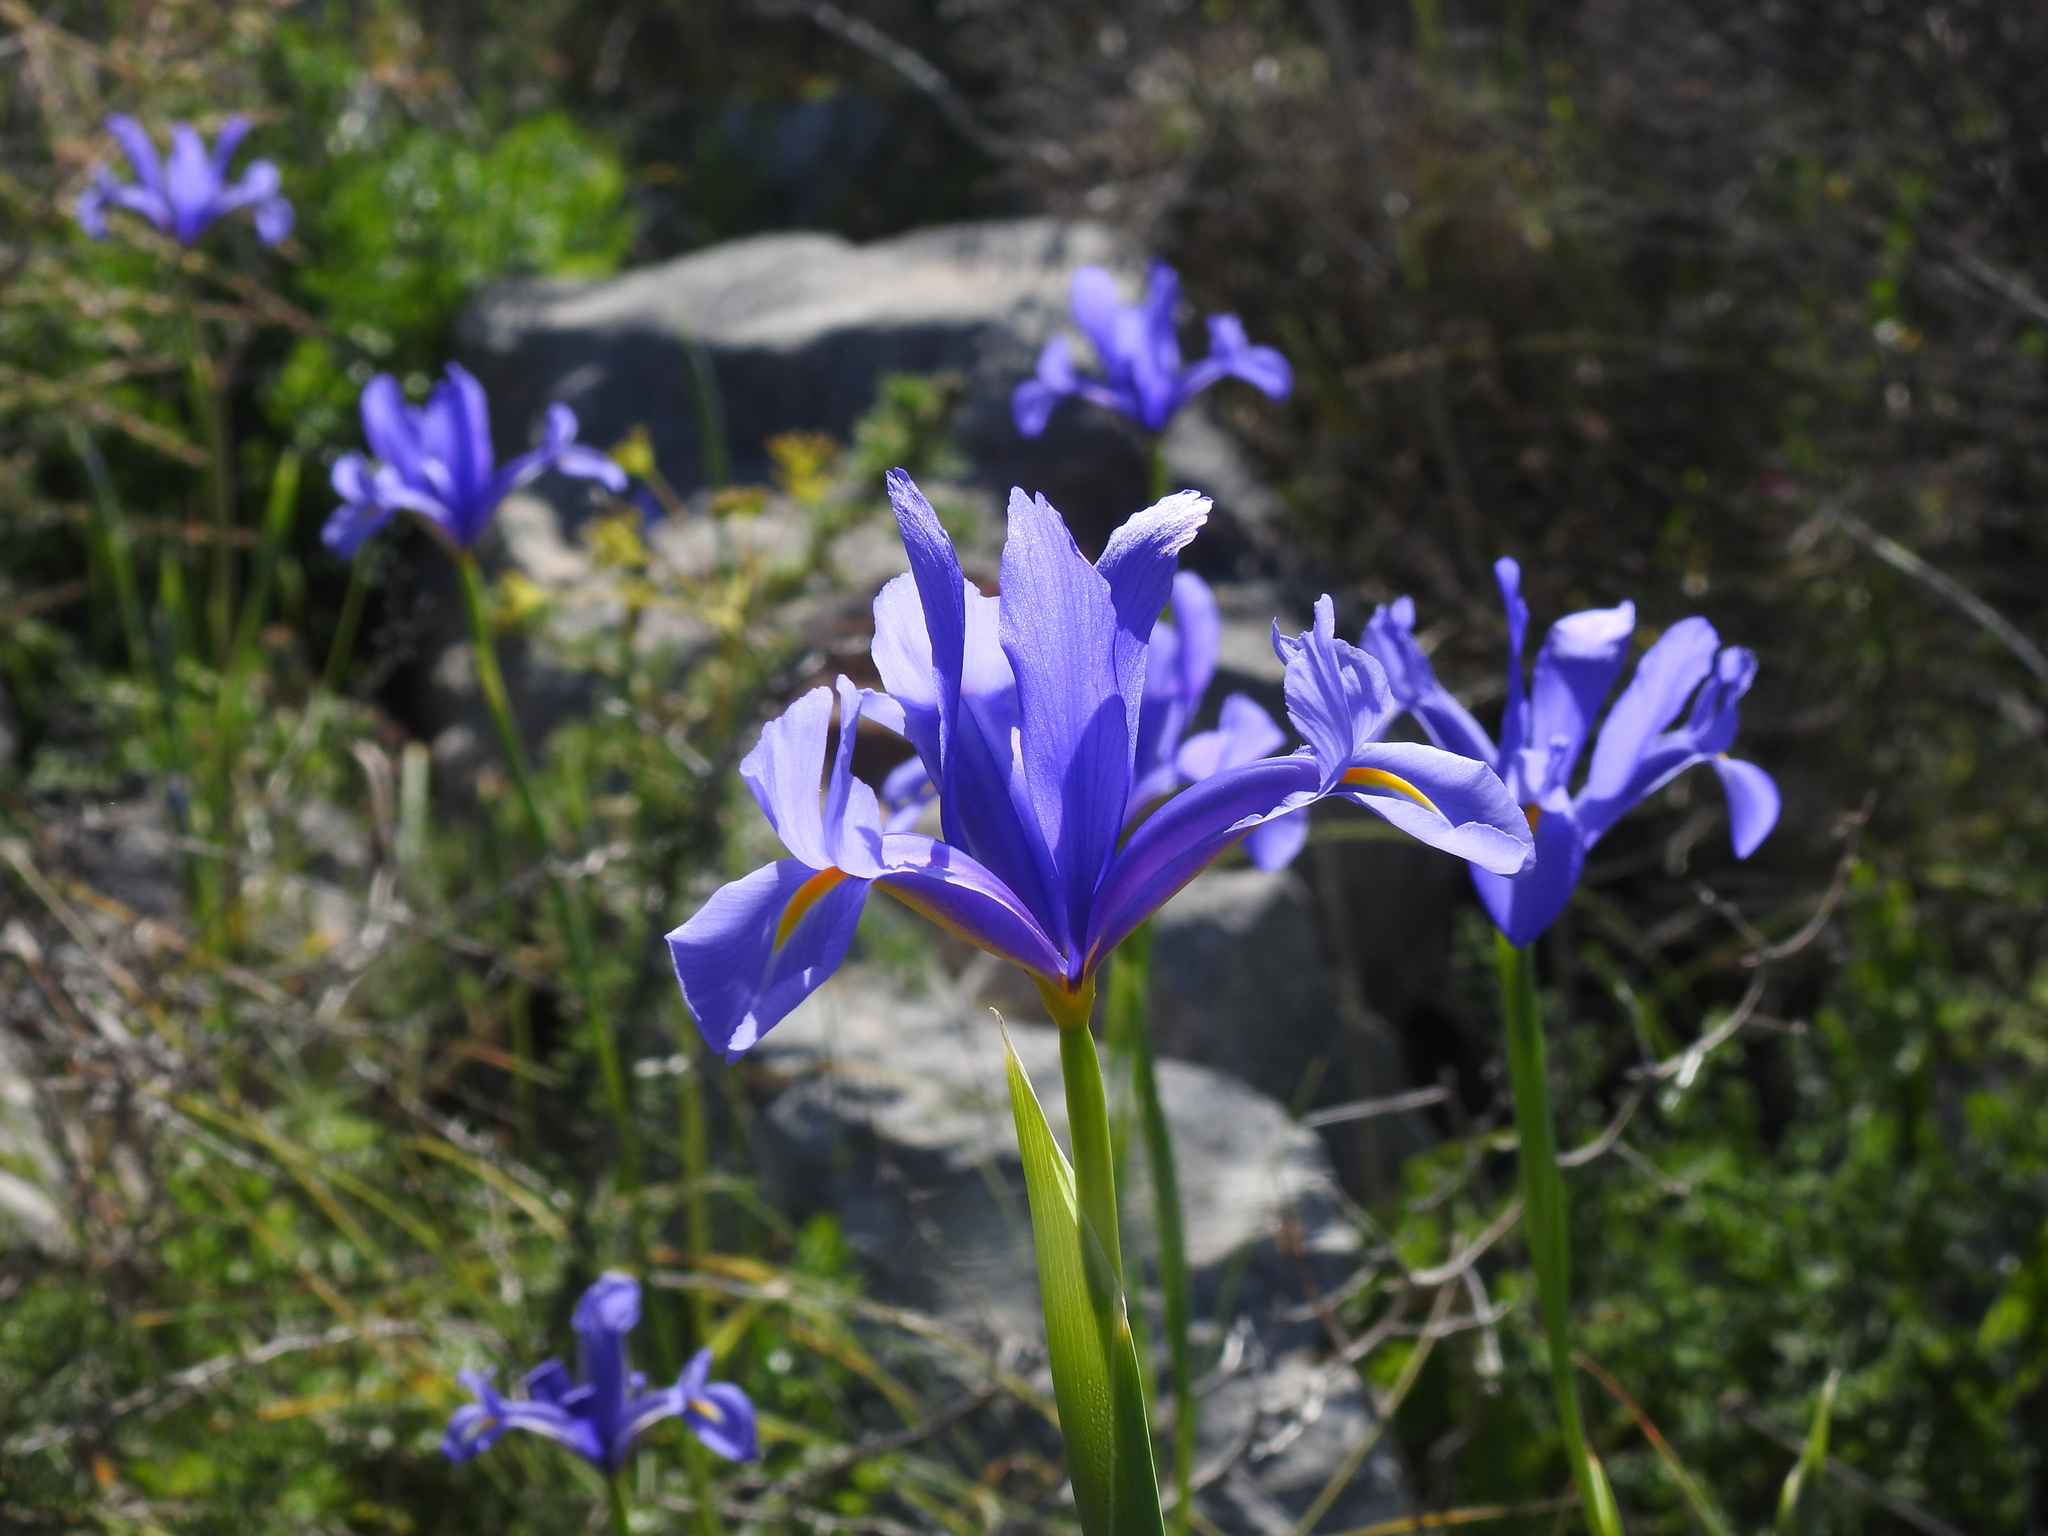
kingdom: Plantae
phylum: Tracheophyta
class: Liliopsida
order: Asparagales
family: Iridaceae
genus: Iris
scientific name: Iris xiphium
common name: Spanish iris
